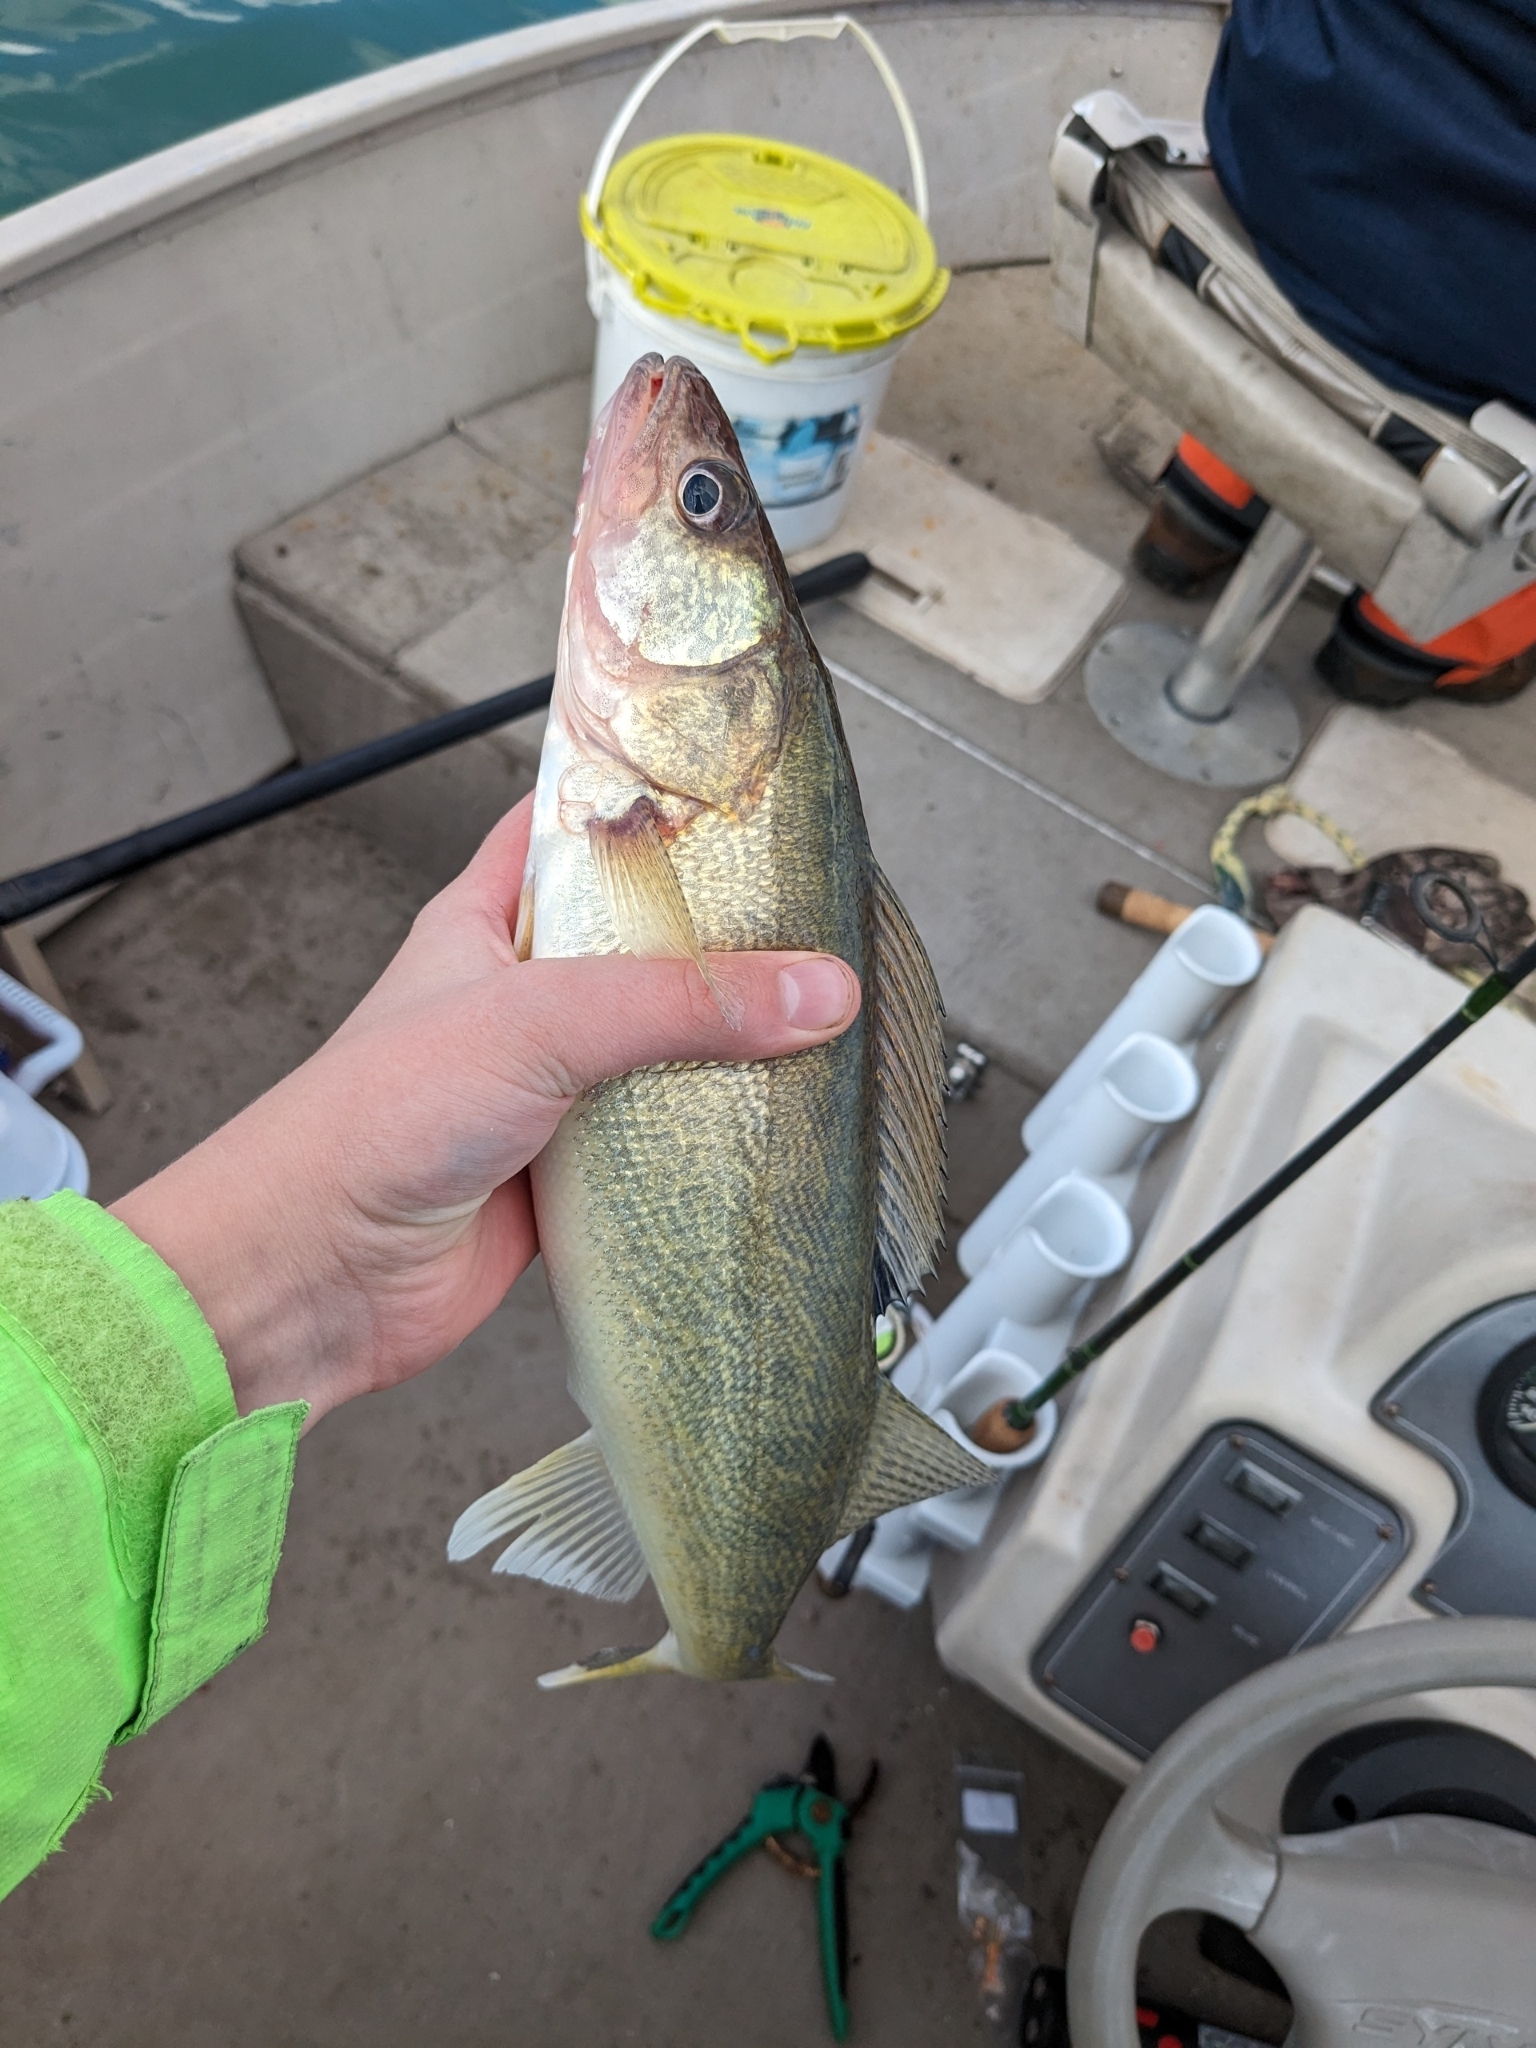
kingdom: Animalia
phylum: Chordata
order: Perciformes
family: Percidae
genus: Sander
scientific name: Sander vitreus
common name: Walleye
